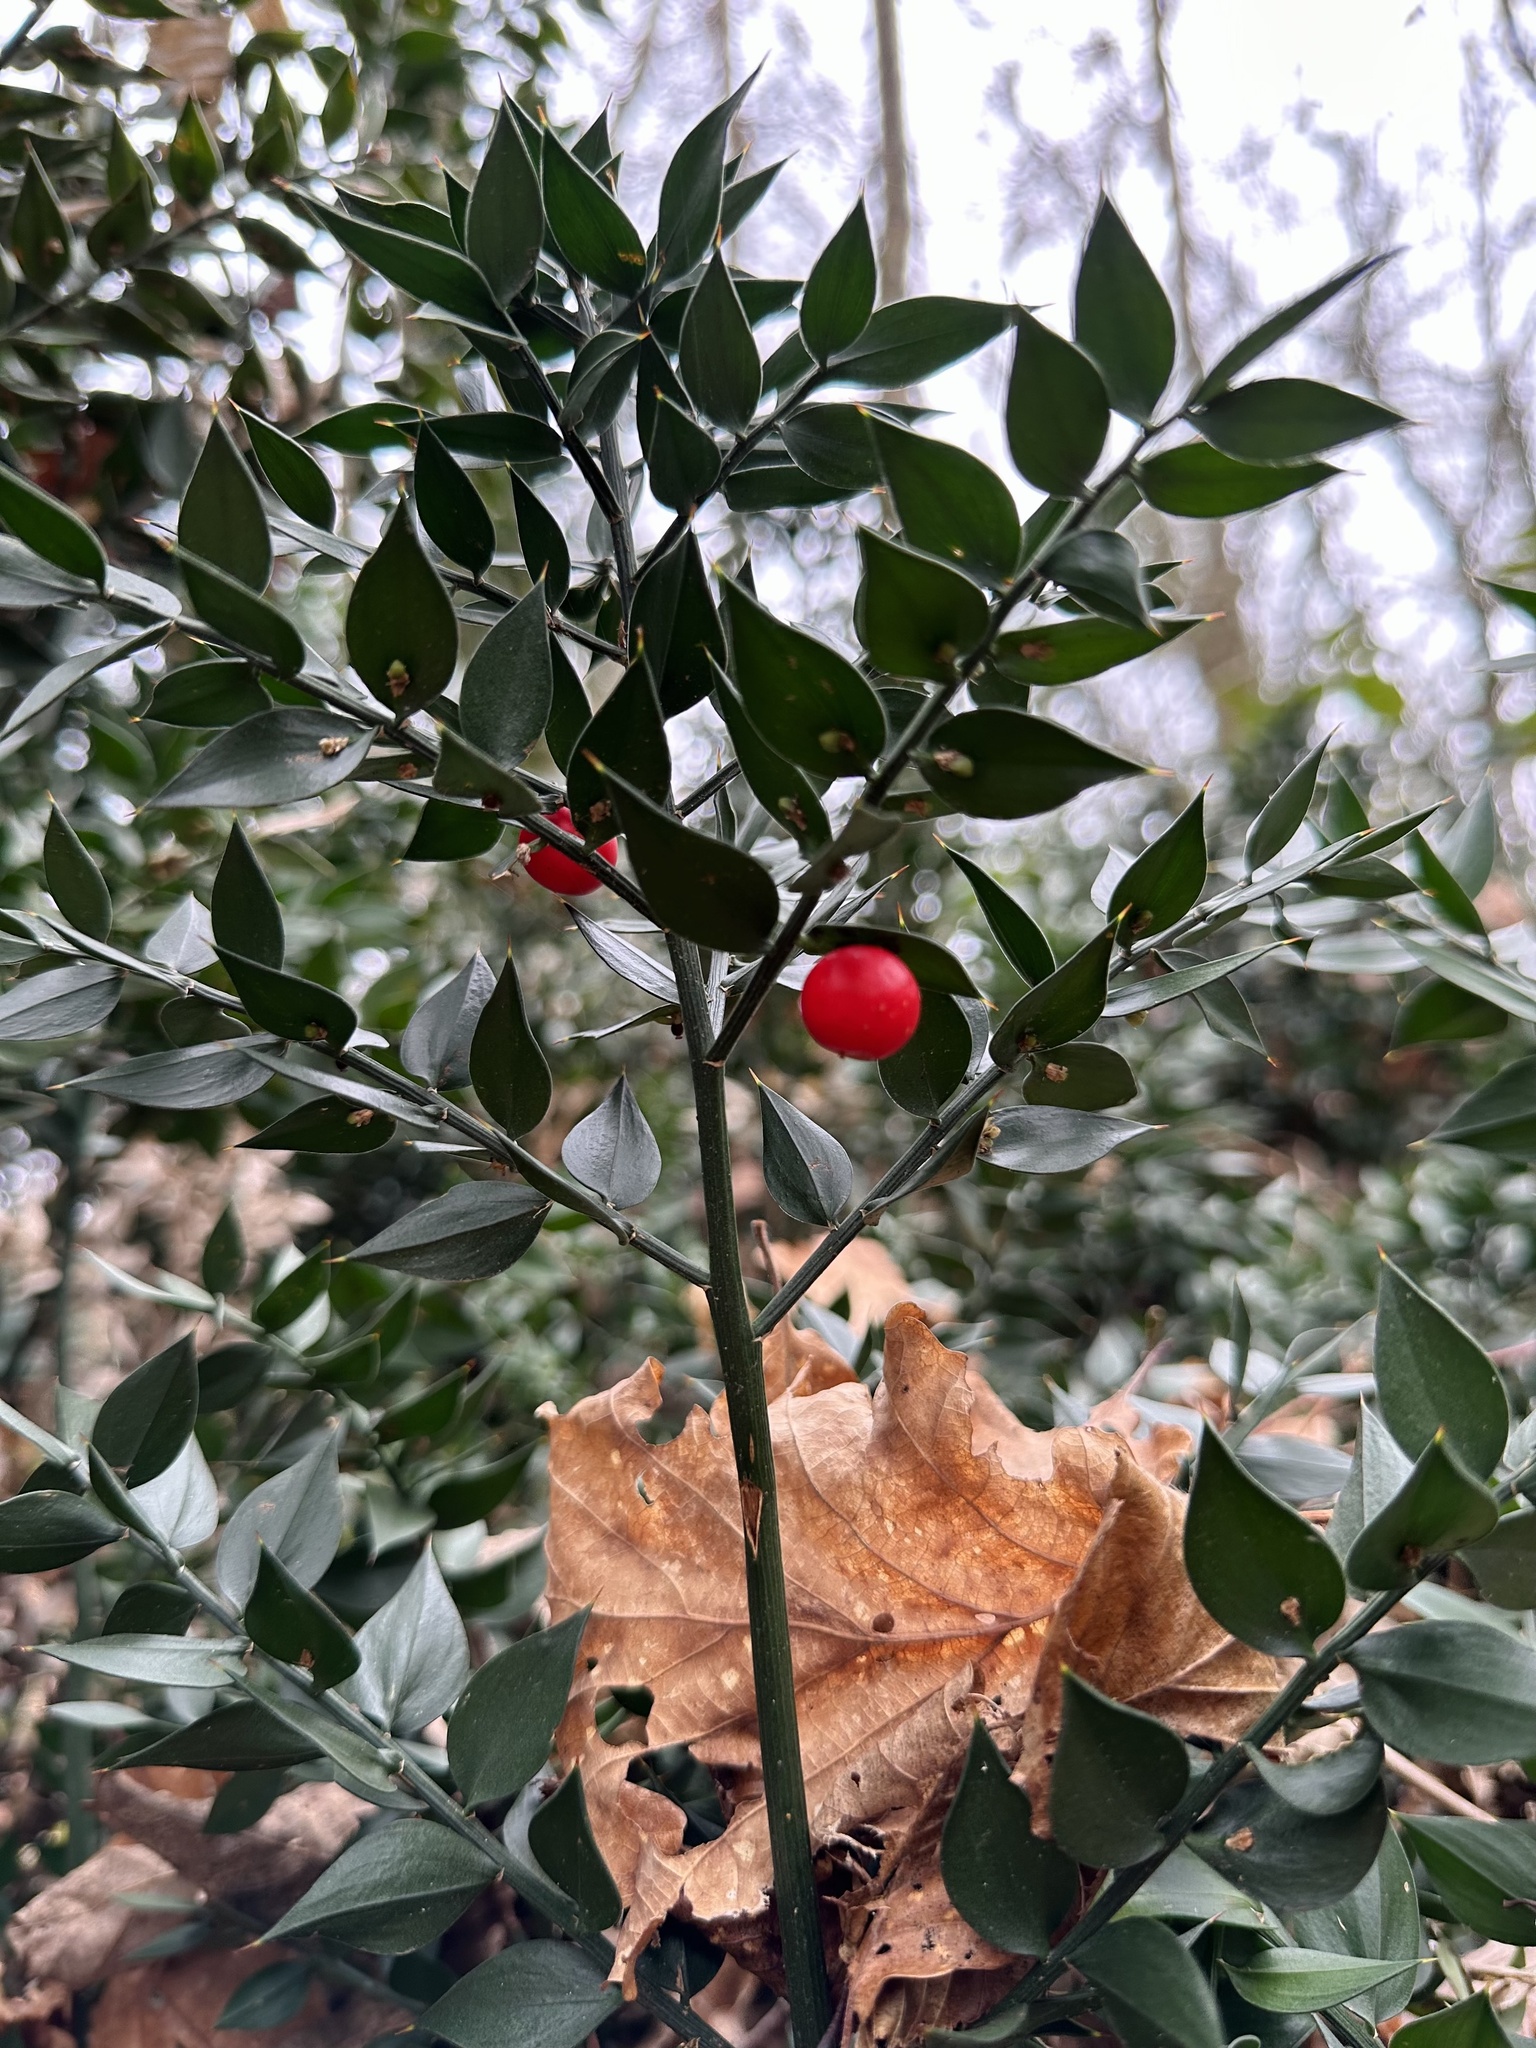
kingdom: Plantae
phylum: Tracheophyta
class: Liliopsida
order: Asparagales
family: Asparagaceae
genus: Ruscus
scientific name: Ruscus aculeatus
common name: Butcher's-broom
